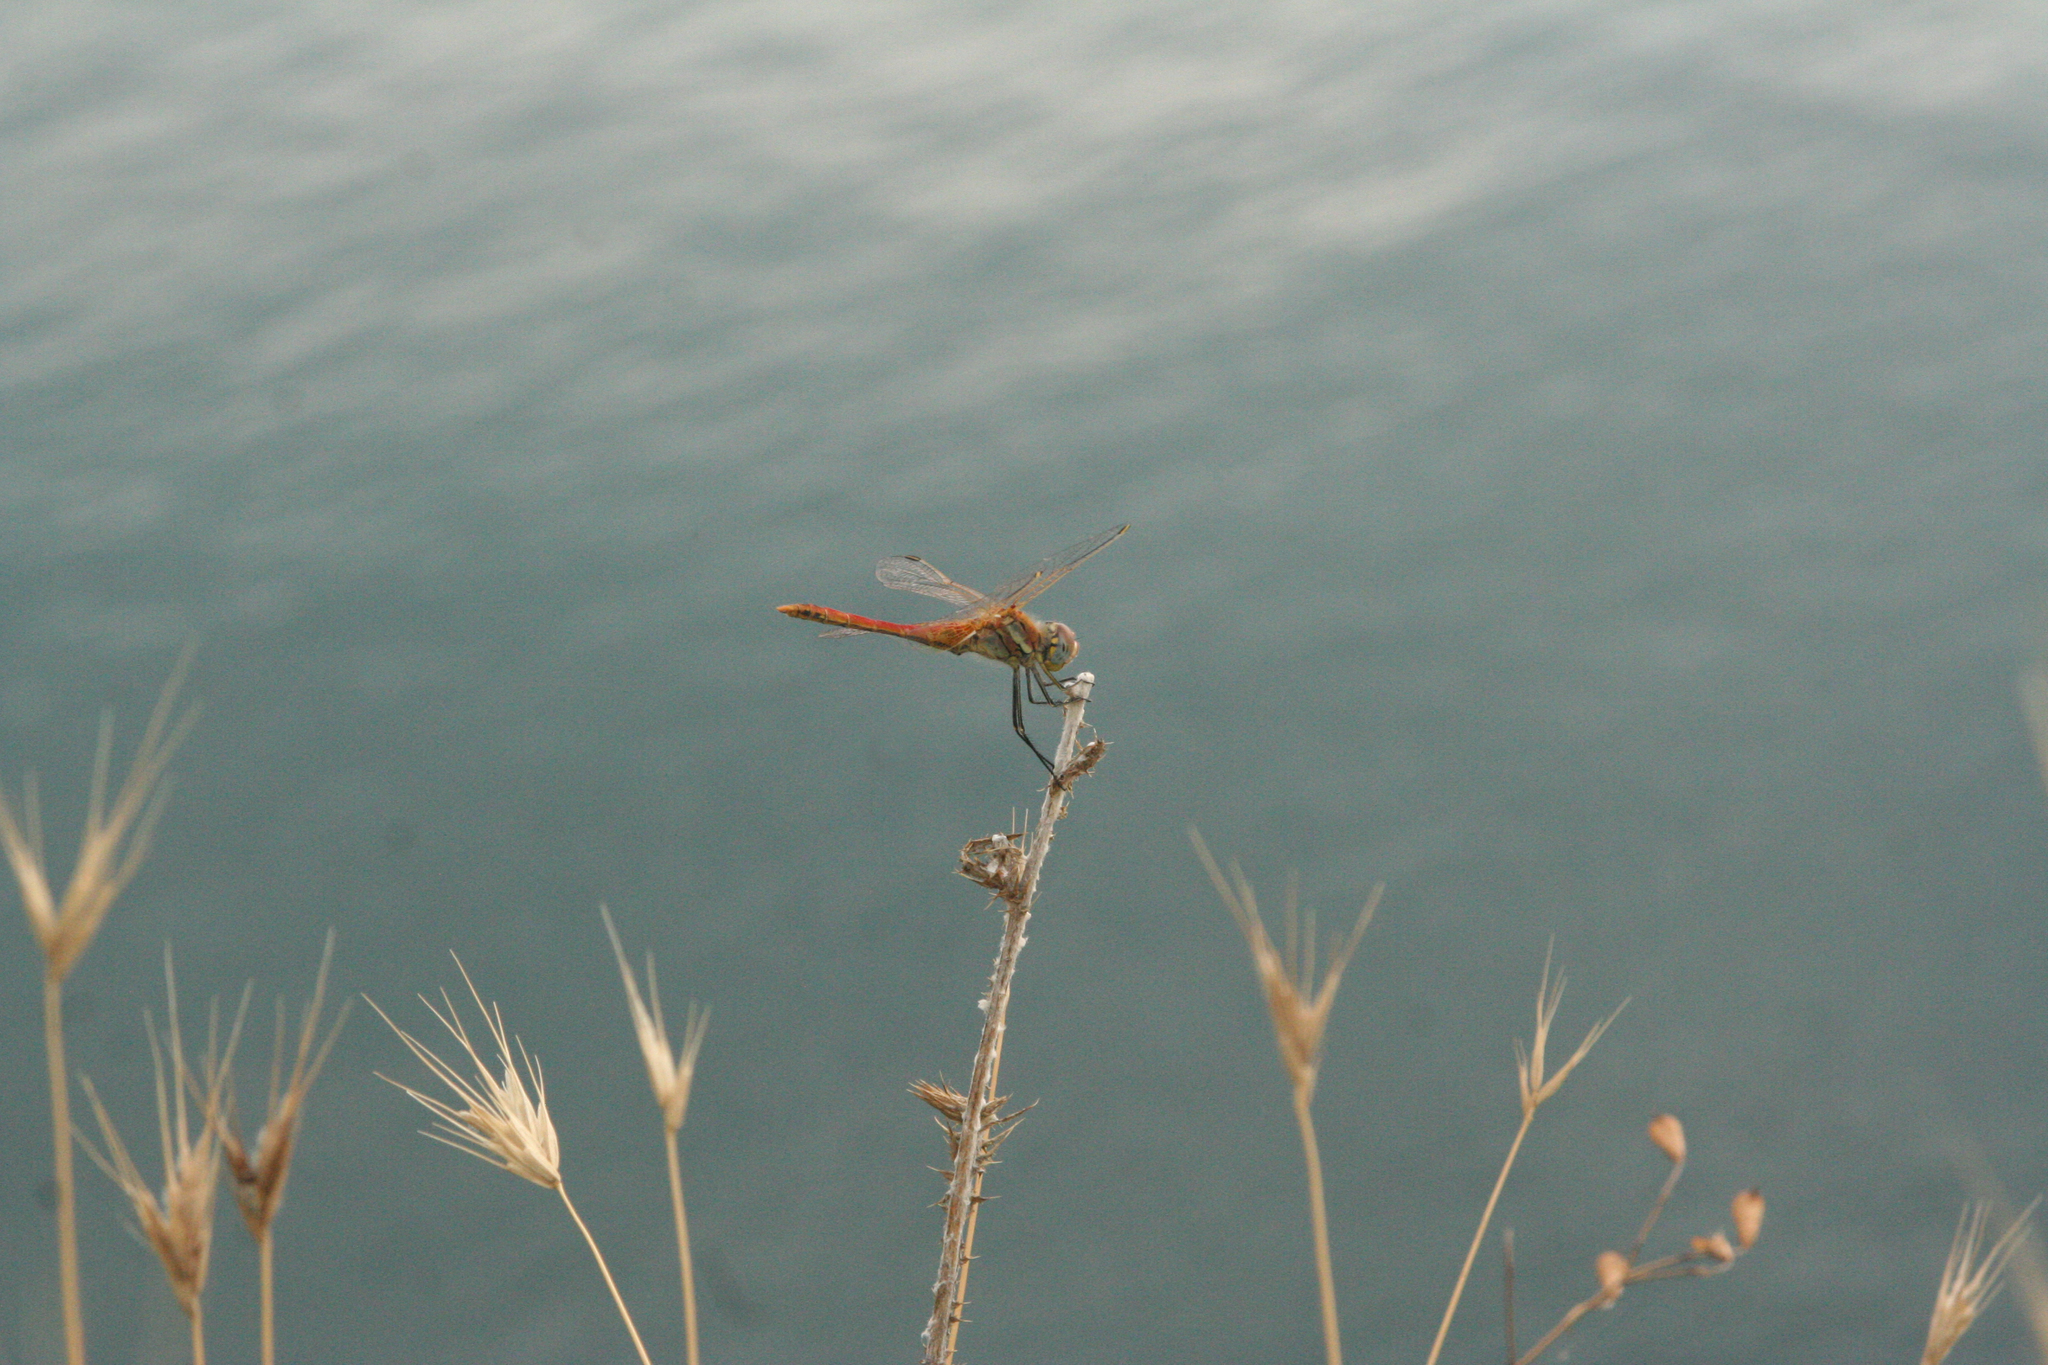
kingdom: Animalia
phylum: Arthropoda
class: Insecta
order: Odonata
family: Libellulidae
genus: Sympetrum
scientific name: Sympetrum fonscolombii
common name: Red-veined darter
